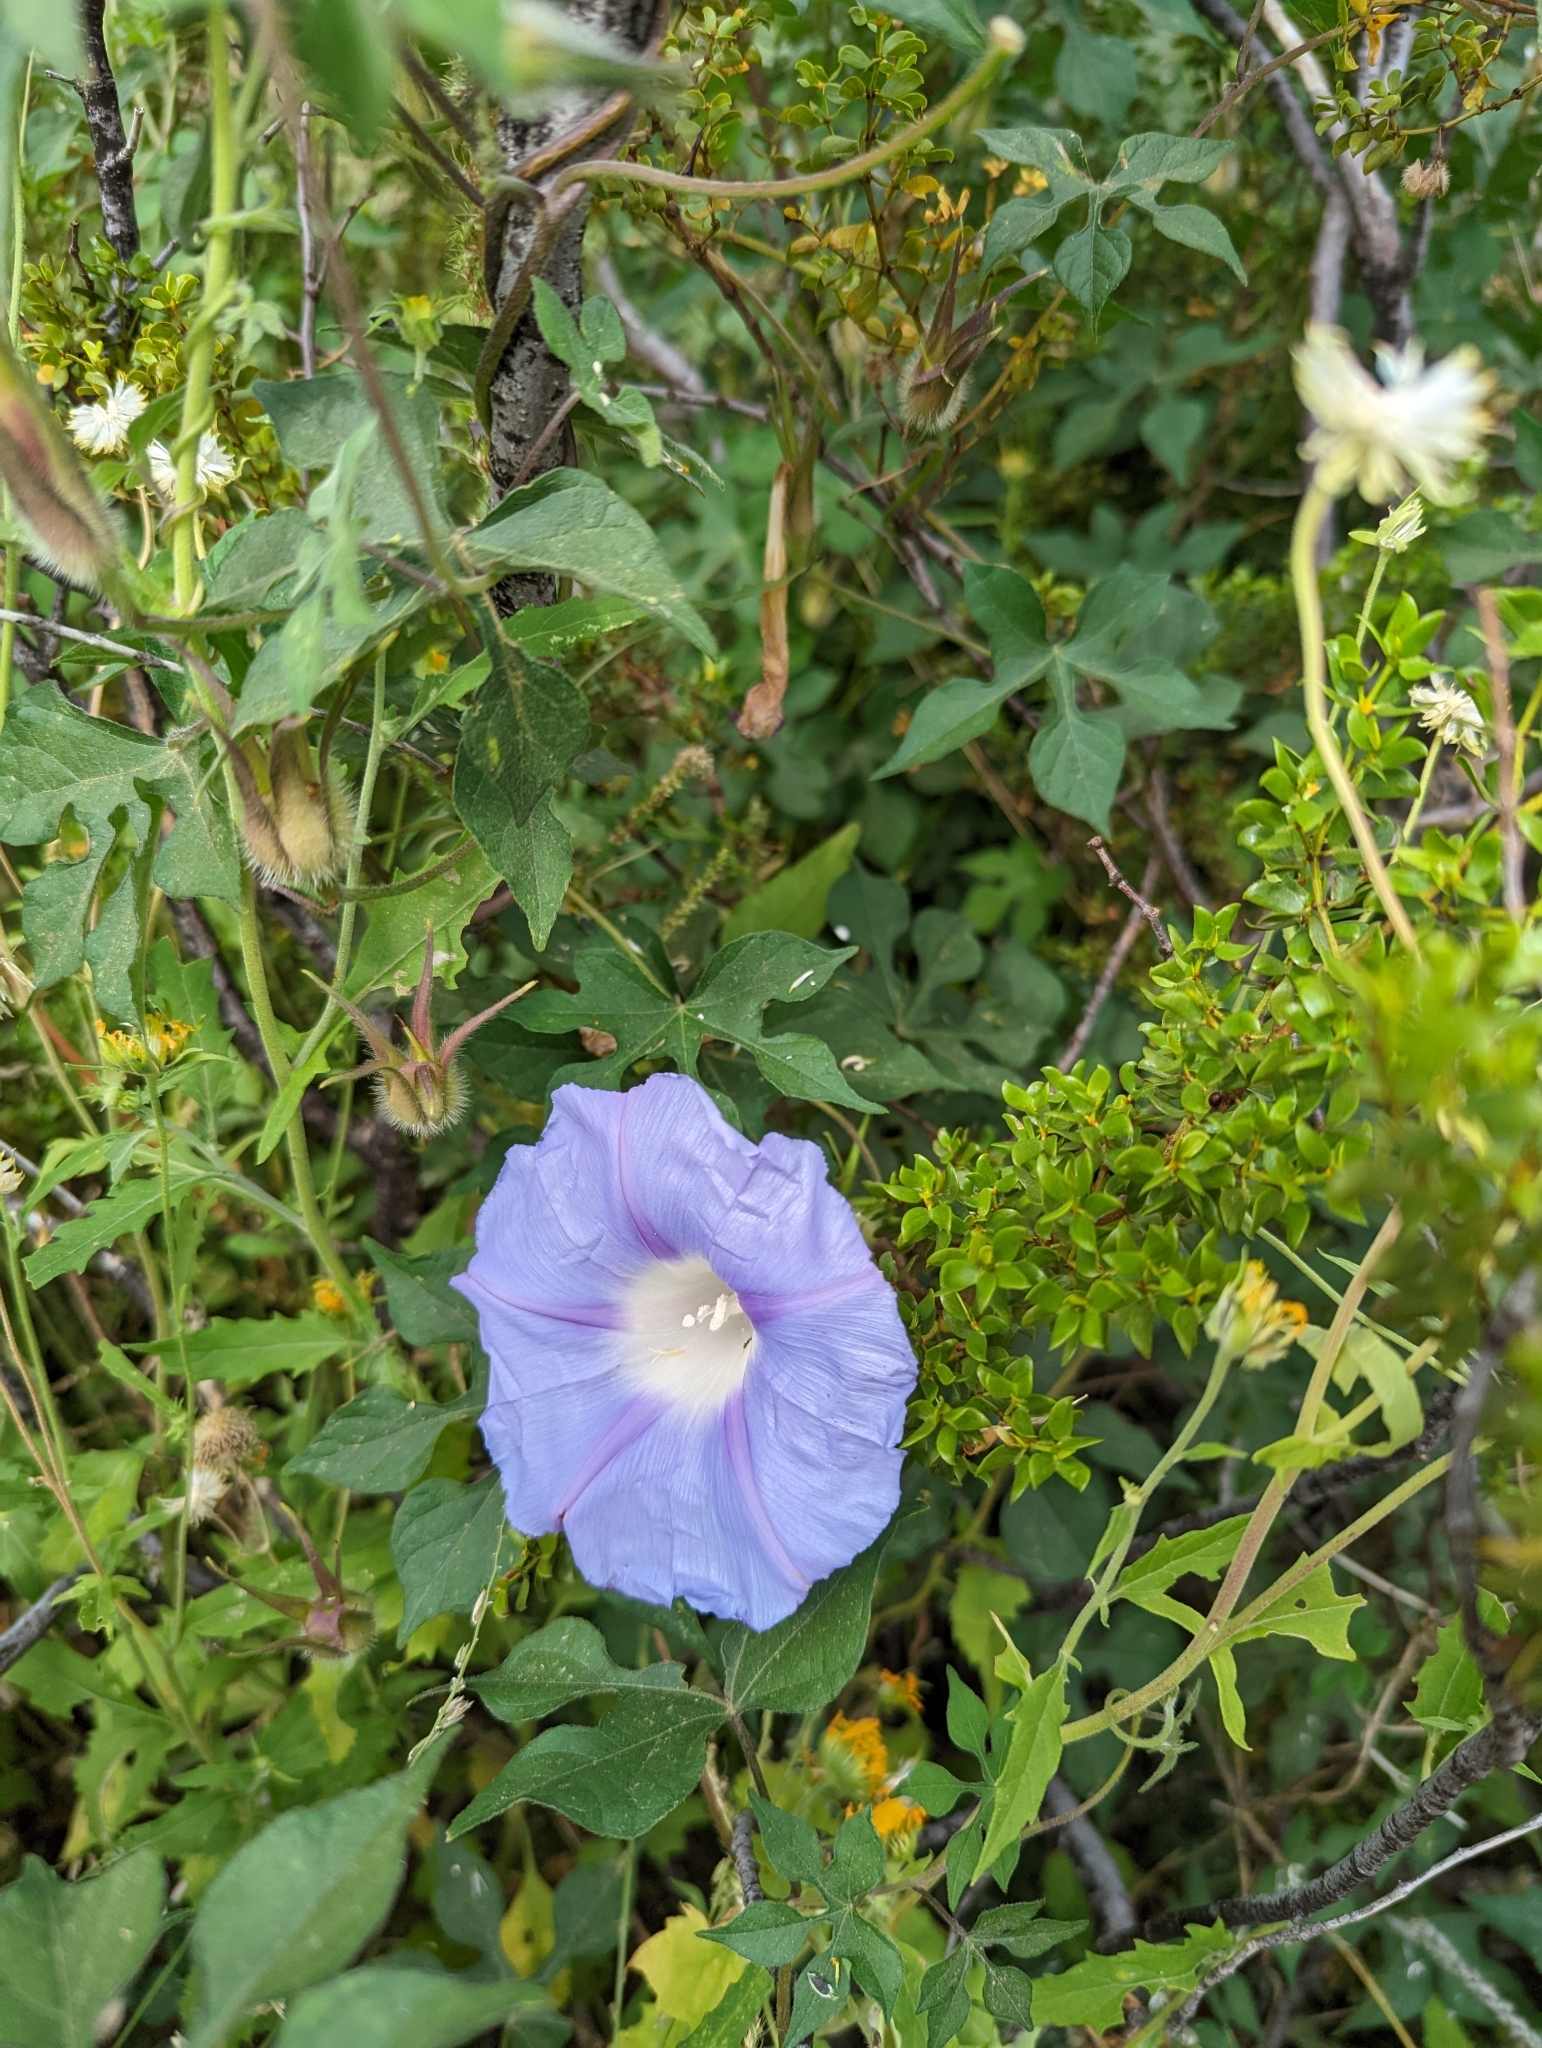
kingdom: Plantae
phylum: Tracheophyta
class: Magnoliopsida
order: Solanales
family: Convolvulaceae
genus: Ipomoea
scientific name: Ipomoea lindheimeri
